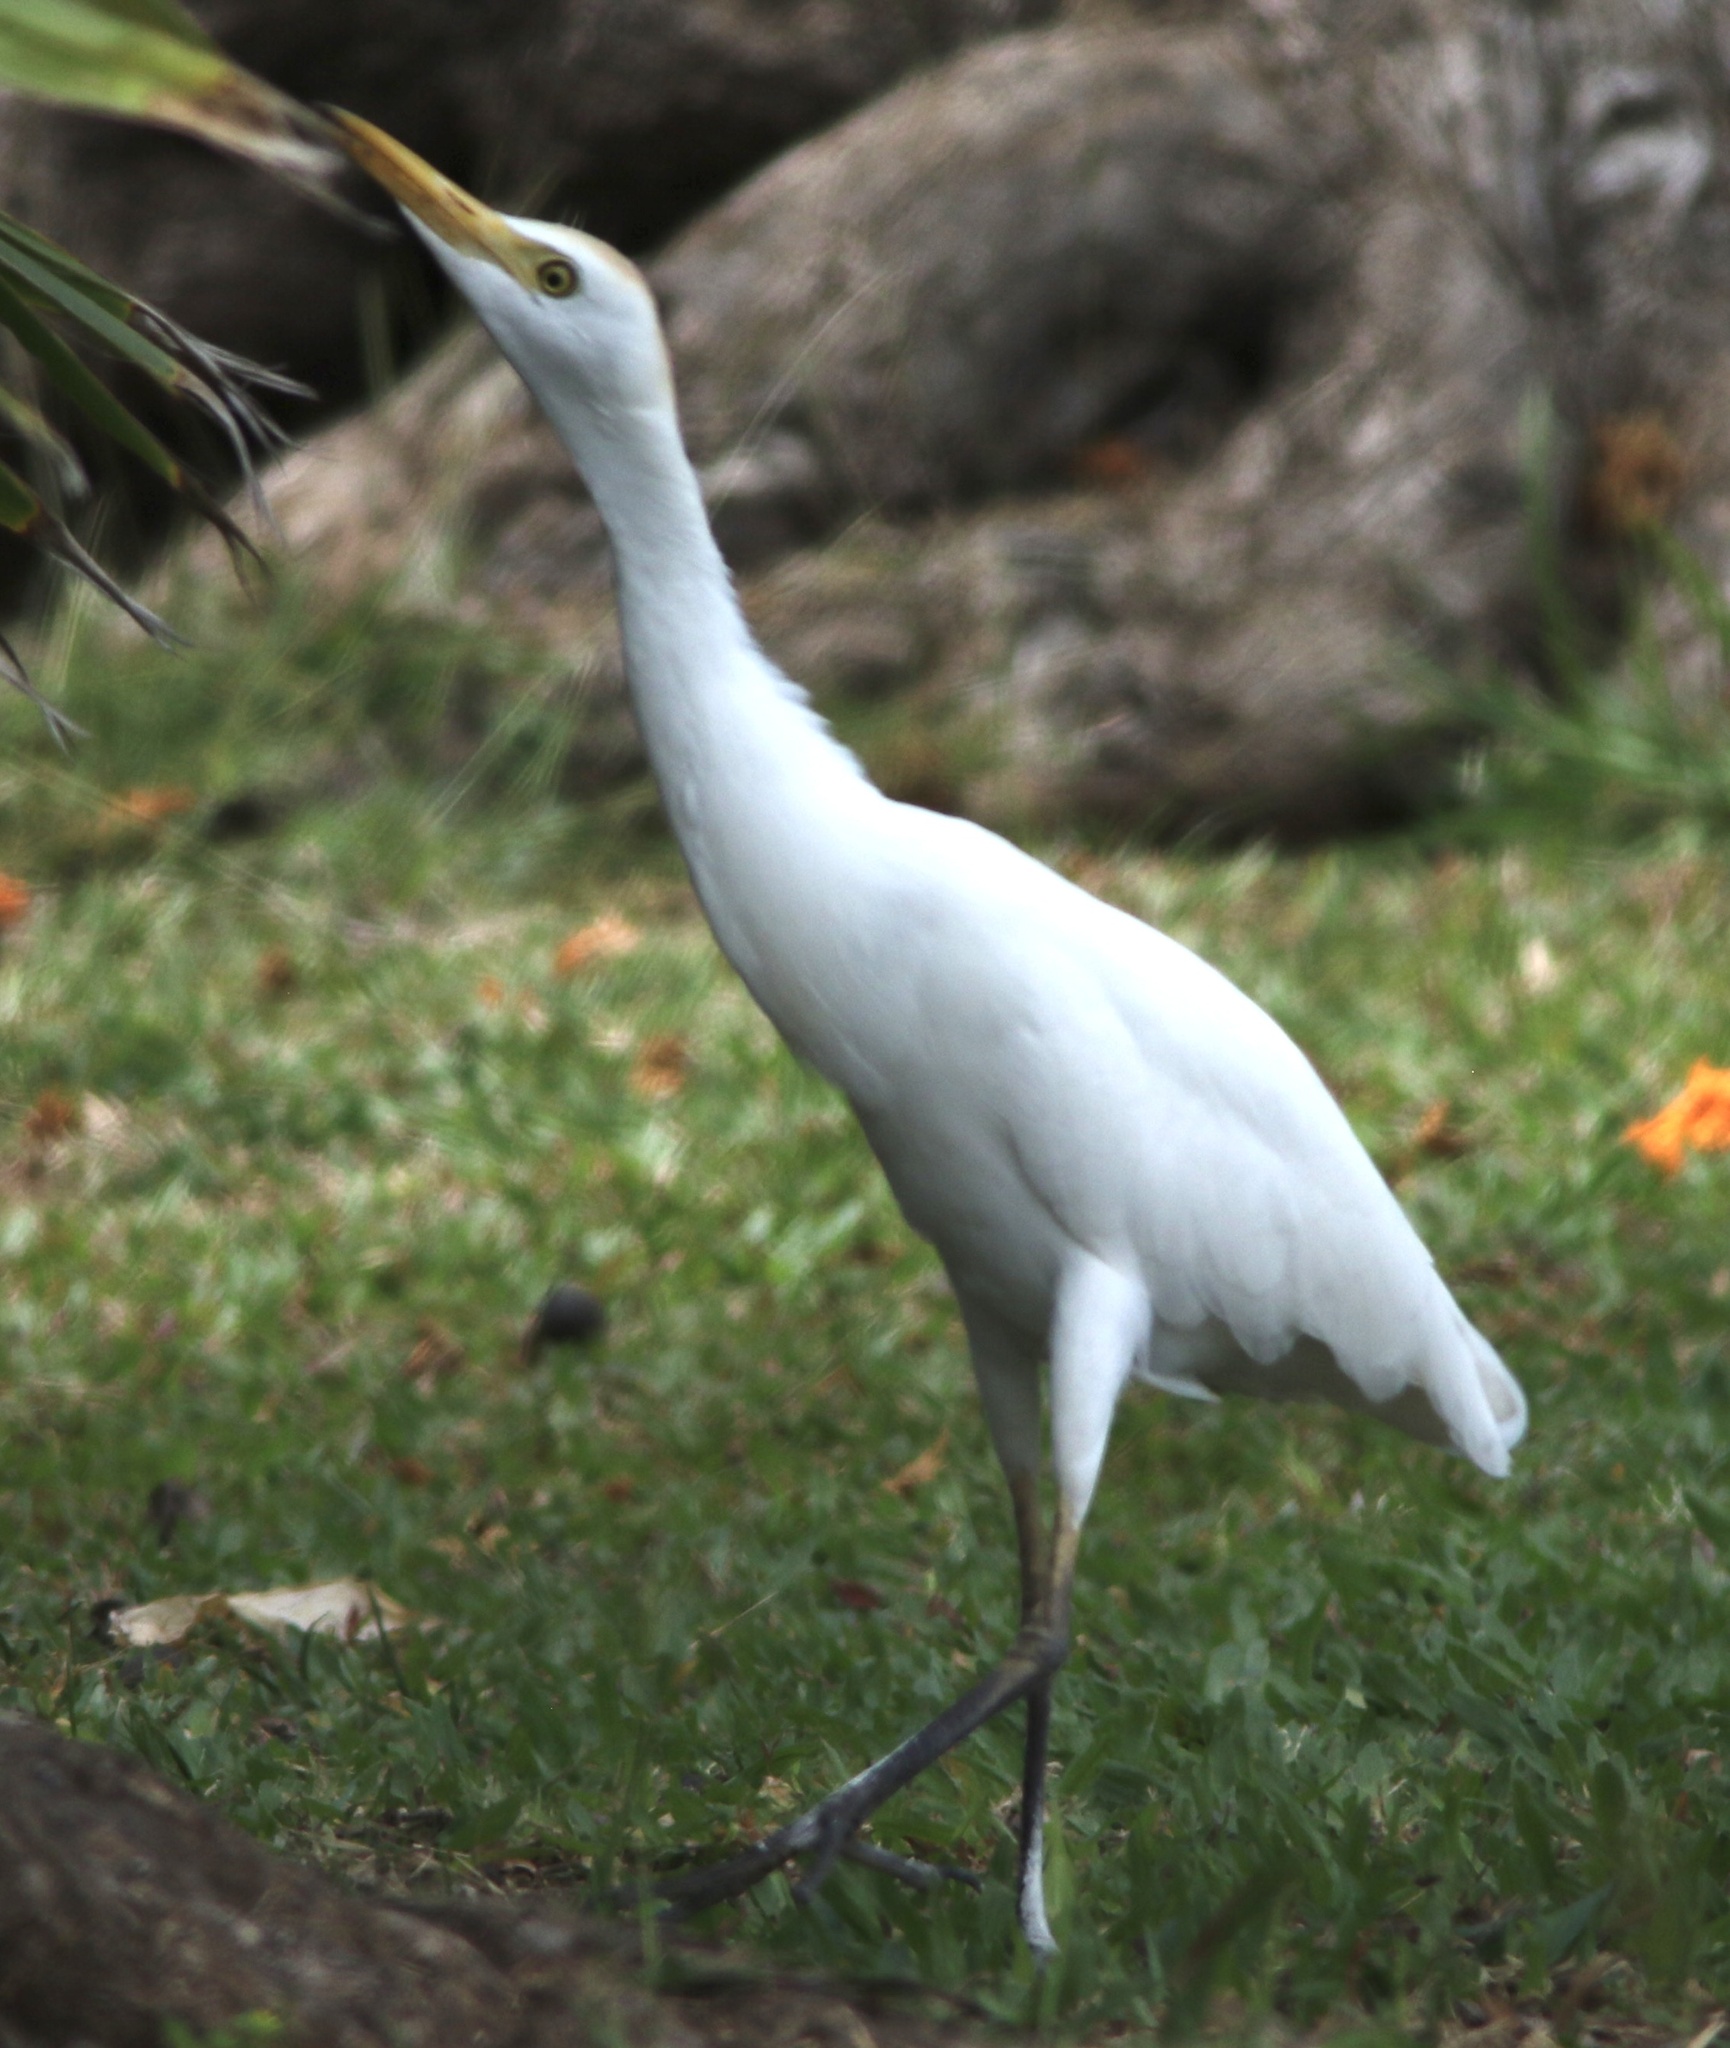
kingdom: Animalia
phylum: Chordata
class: Aves
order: Pelecaniformes
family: Ardeidae
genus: Bubulcus
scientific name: Bubulcus ibis
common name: Cattle egret
